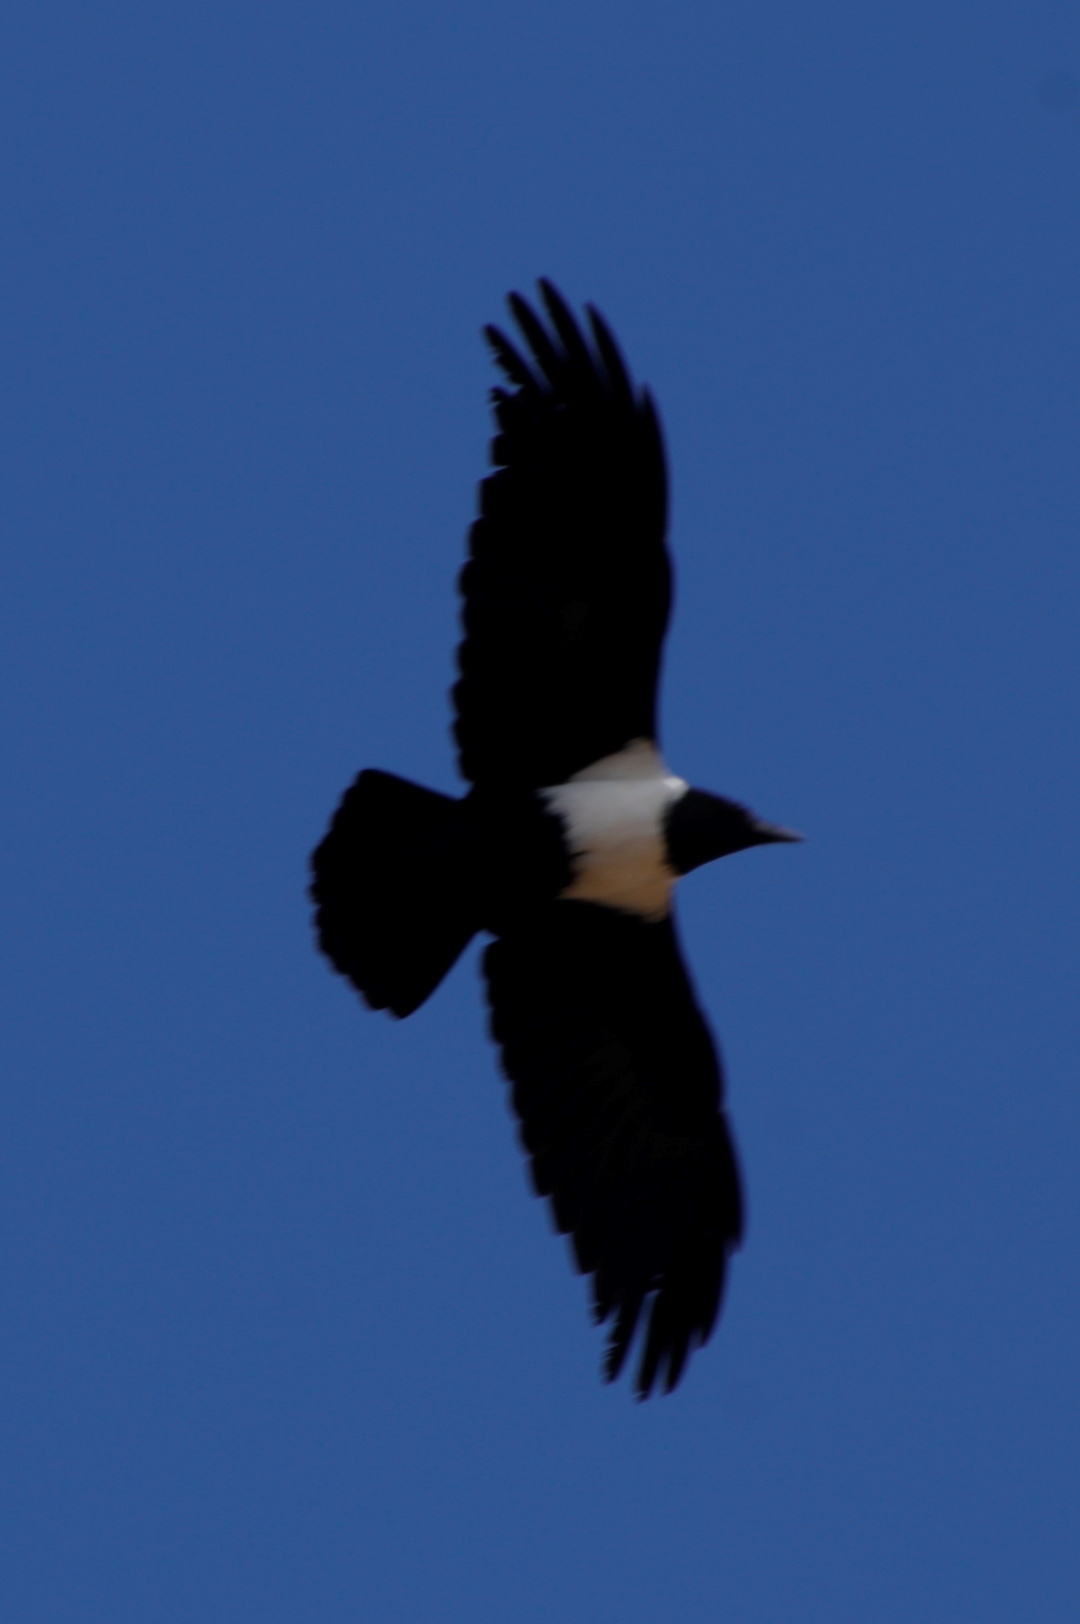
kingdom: Animalia
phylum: Chordata
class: Aves
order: Passeriformes
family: Corvidae
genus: Corvus
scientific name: Corvus albus
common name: Pied crow
